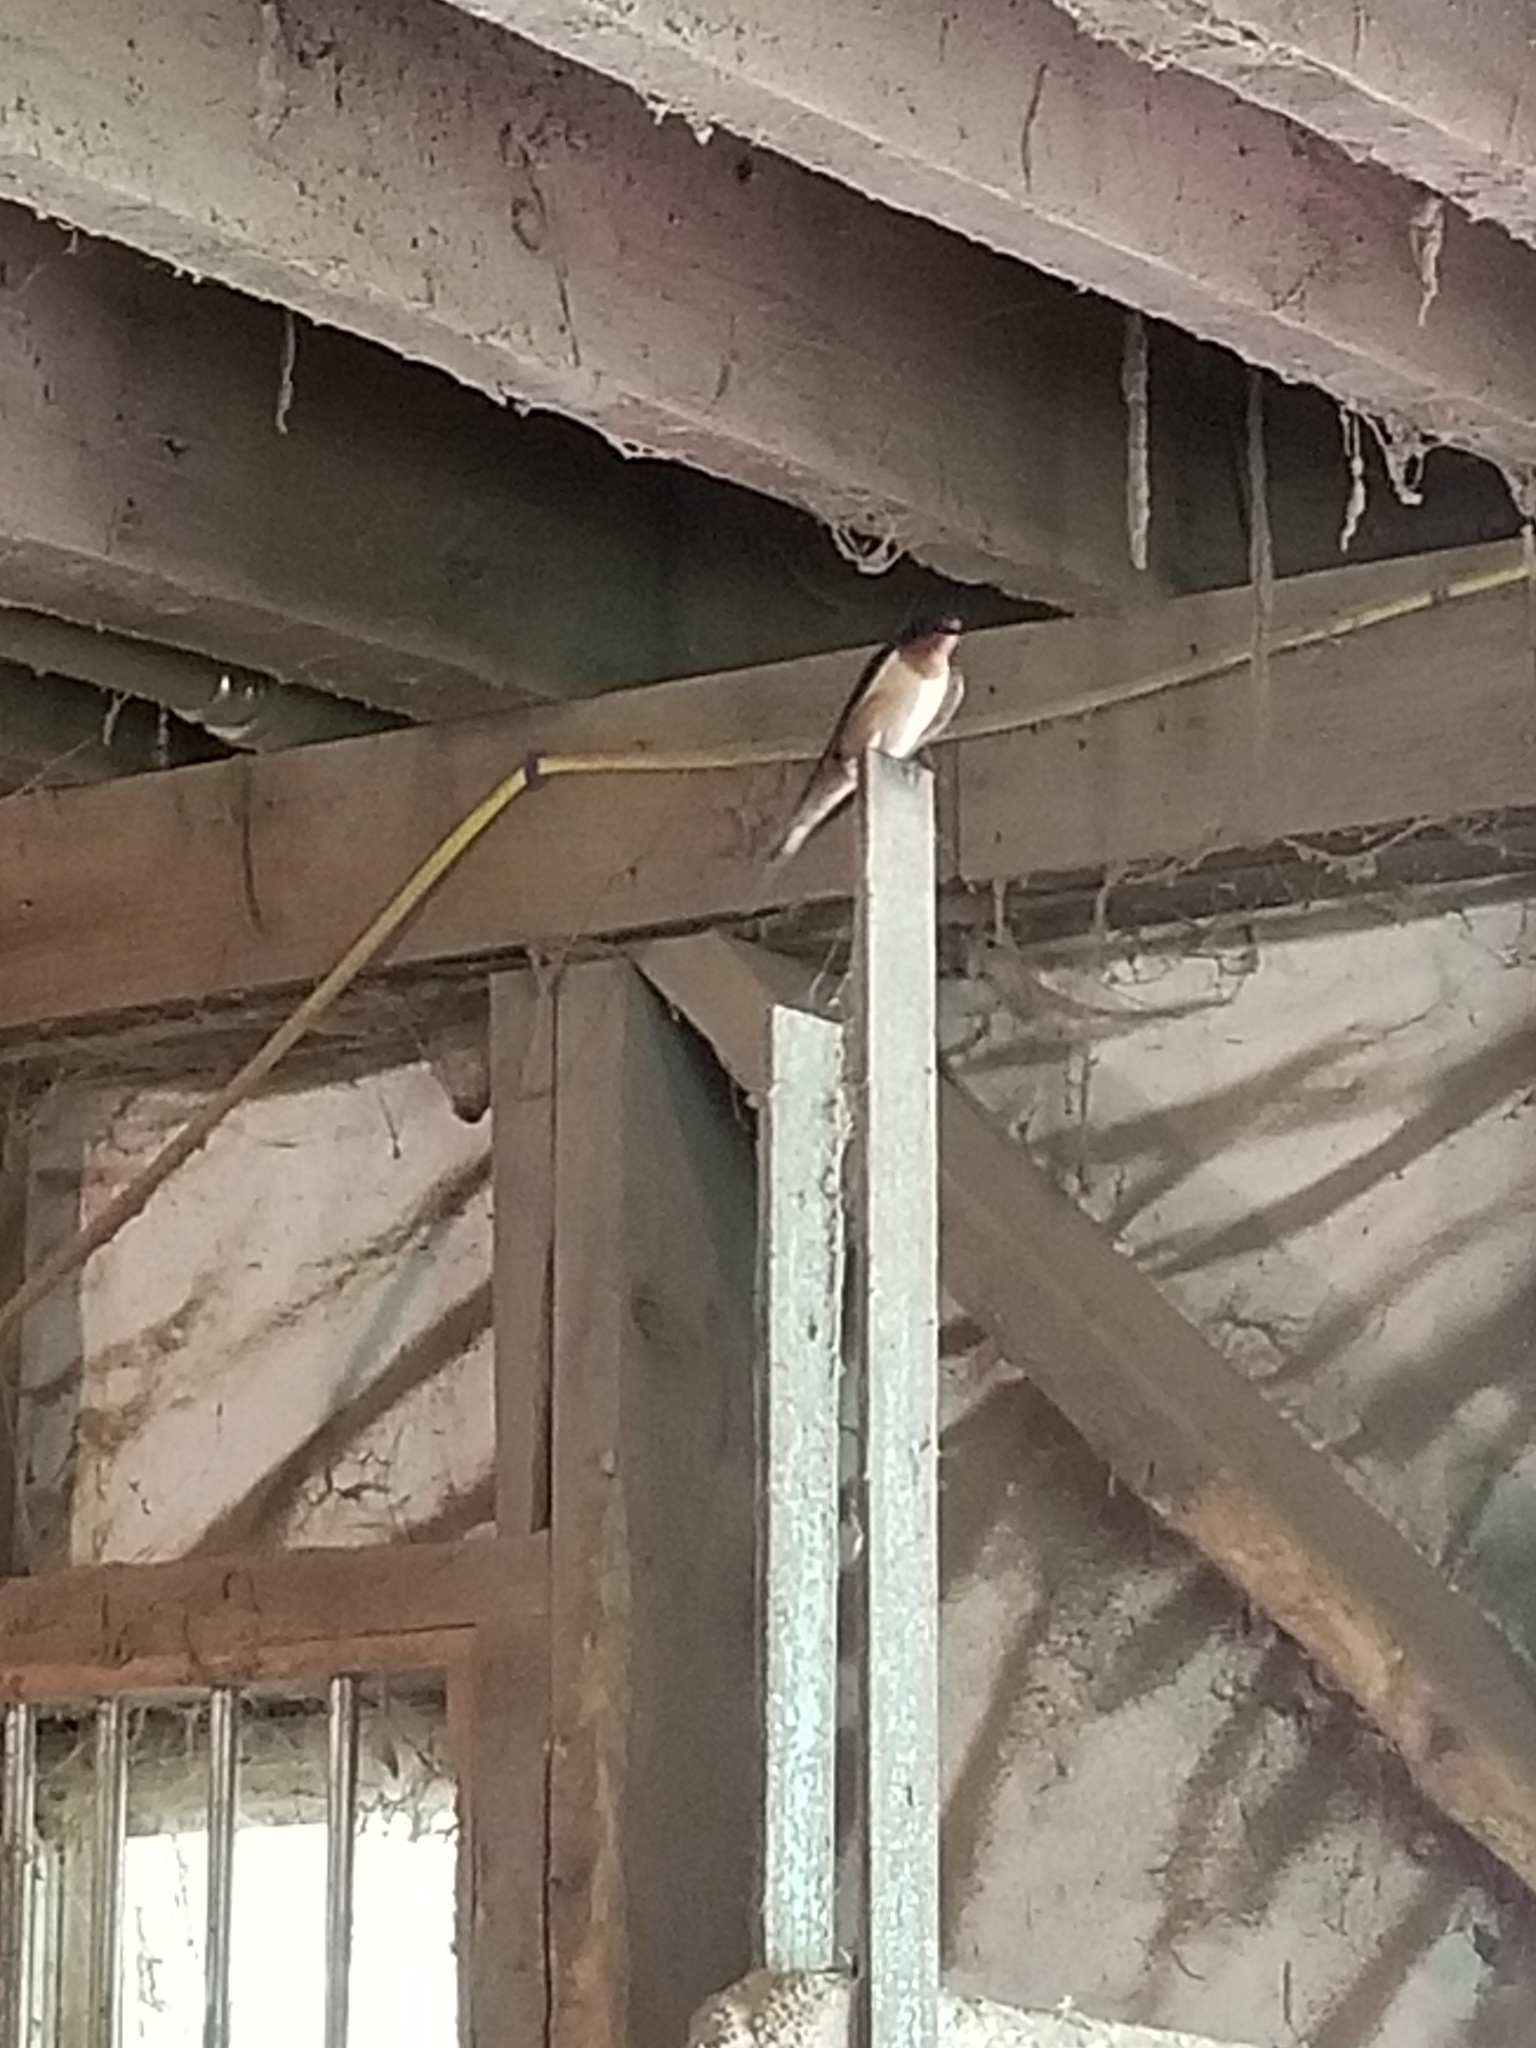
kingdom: Animalia
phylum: Chordata
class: Aves
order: Passeriformes
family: Hirundinidae
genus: Hirundo
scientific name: Hirundo rustica
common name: Barn swallow
